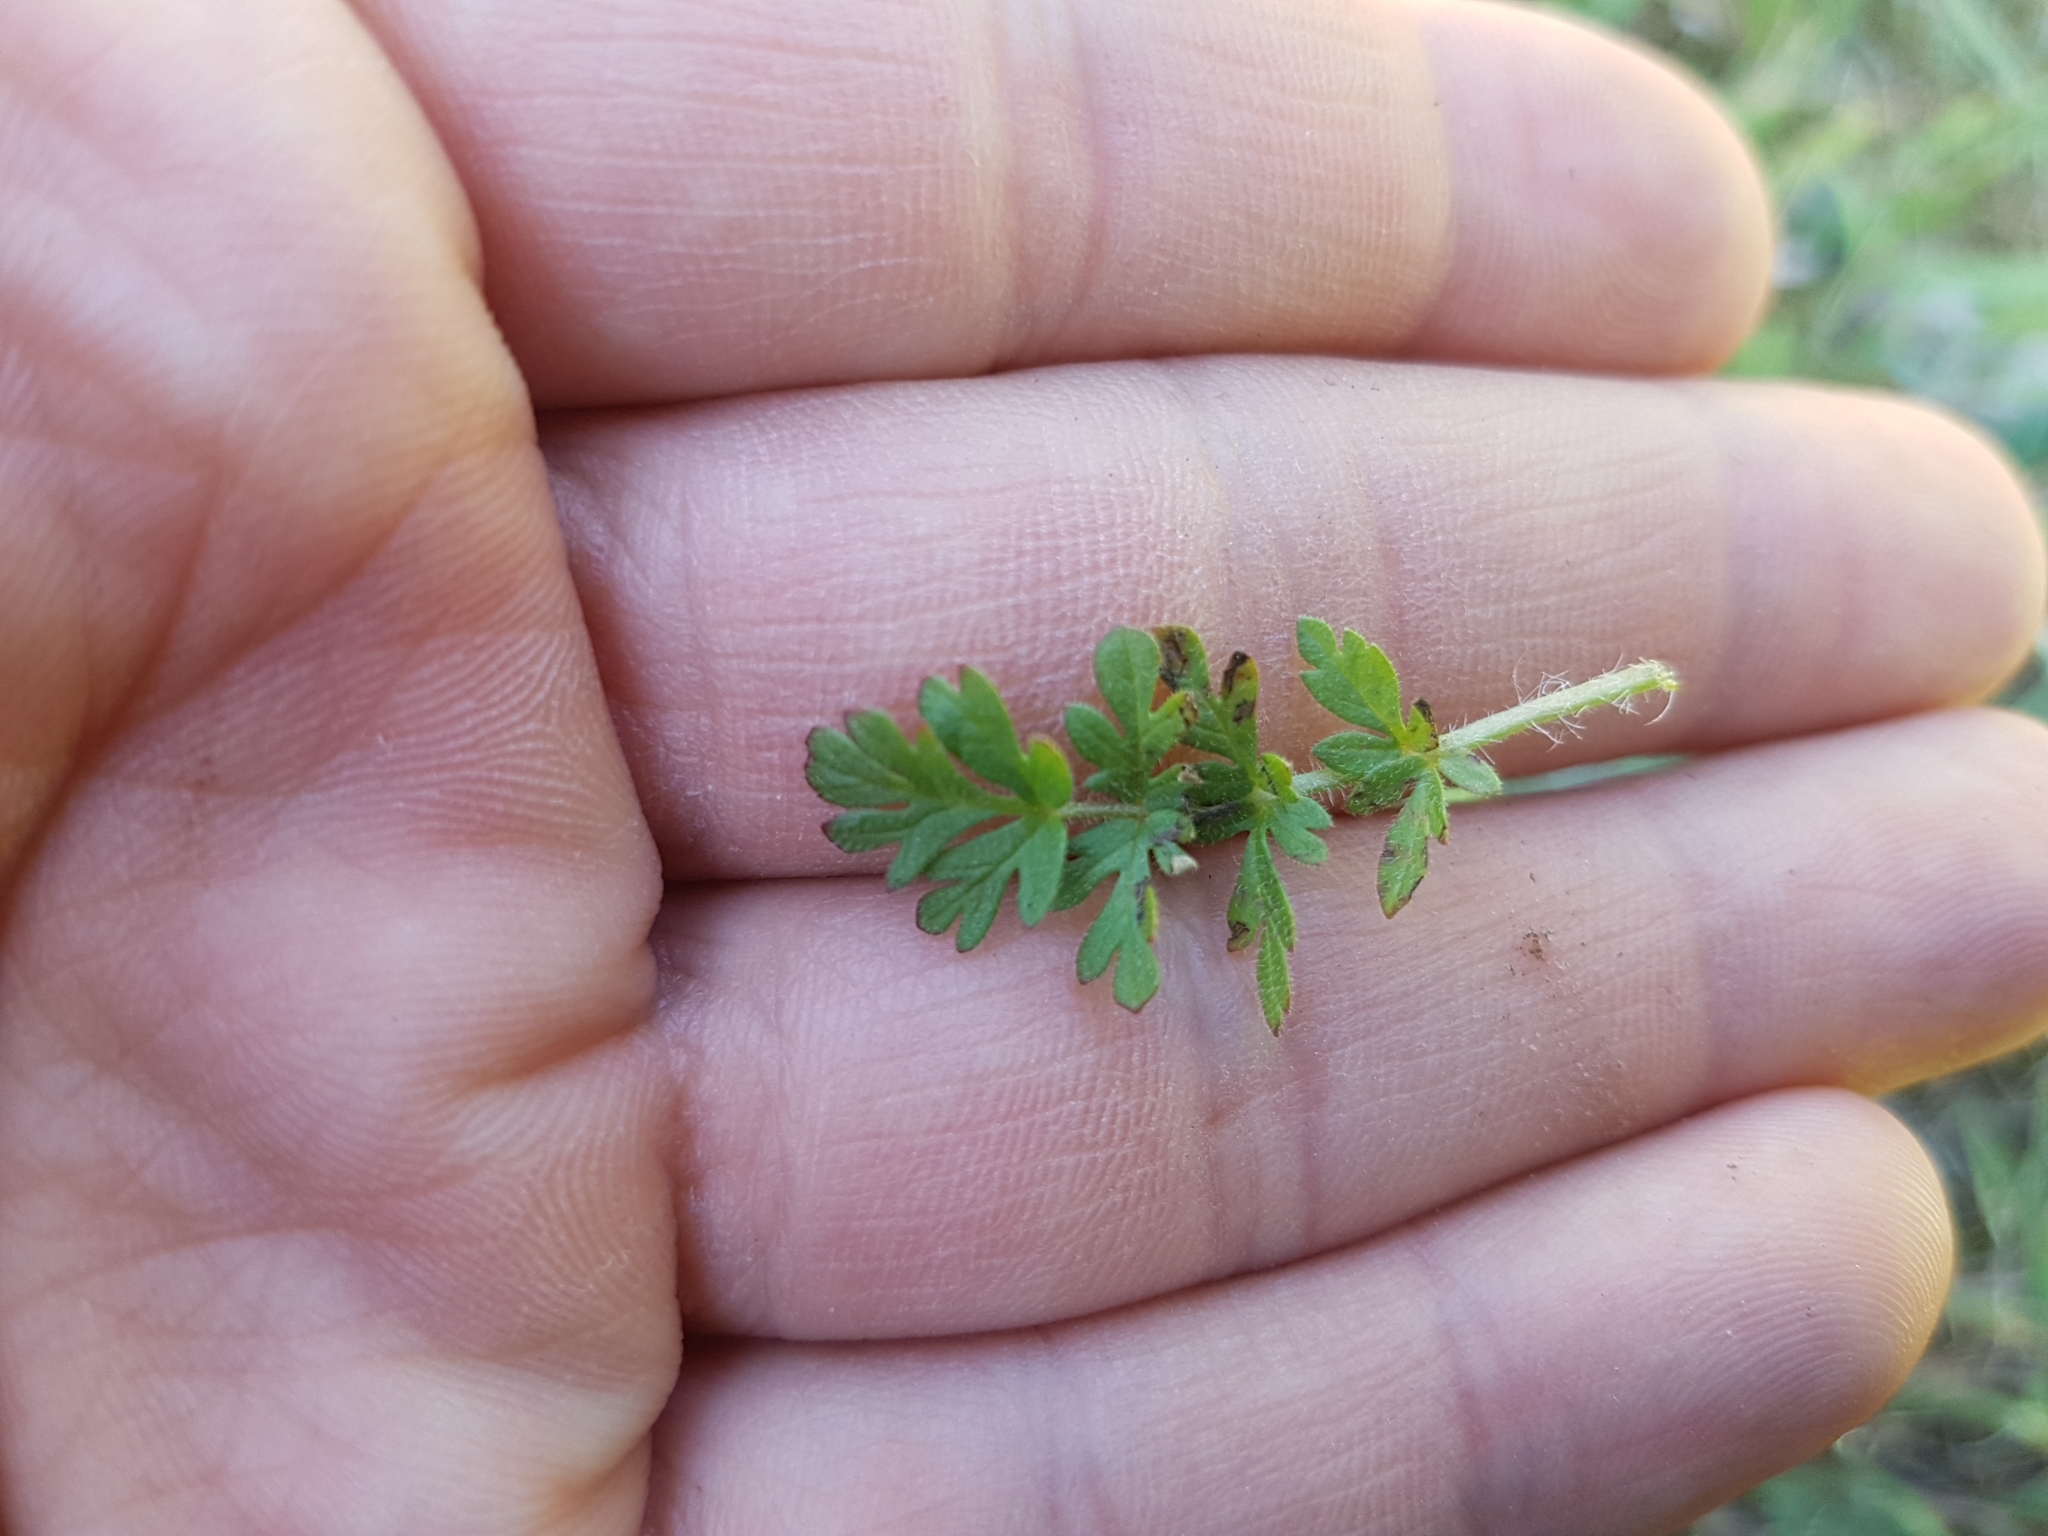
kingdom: Plantae
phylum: Tracheophyta
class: Magnoliopsida
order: Geraniales
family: Geraniaceae
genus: Erodium
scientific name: Erodium cicutarium
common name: Common stork's-bill
